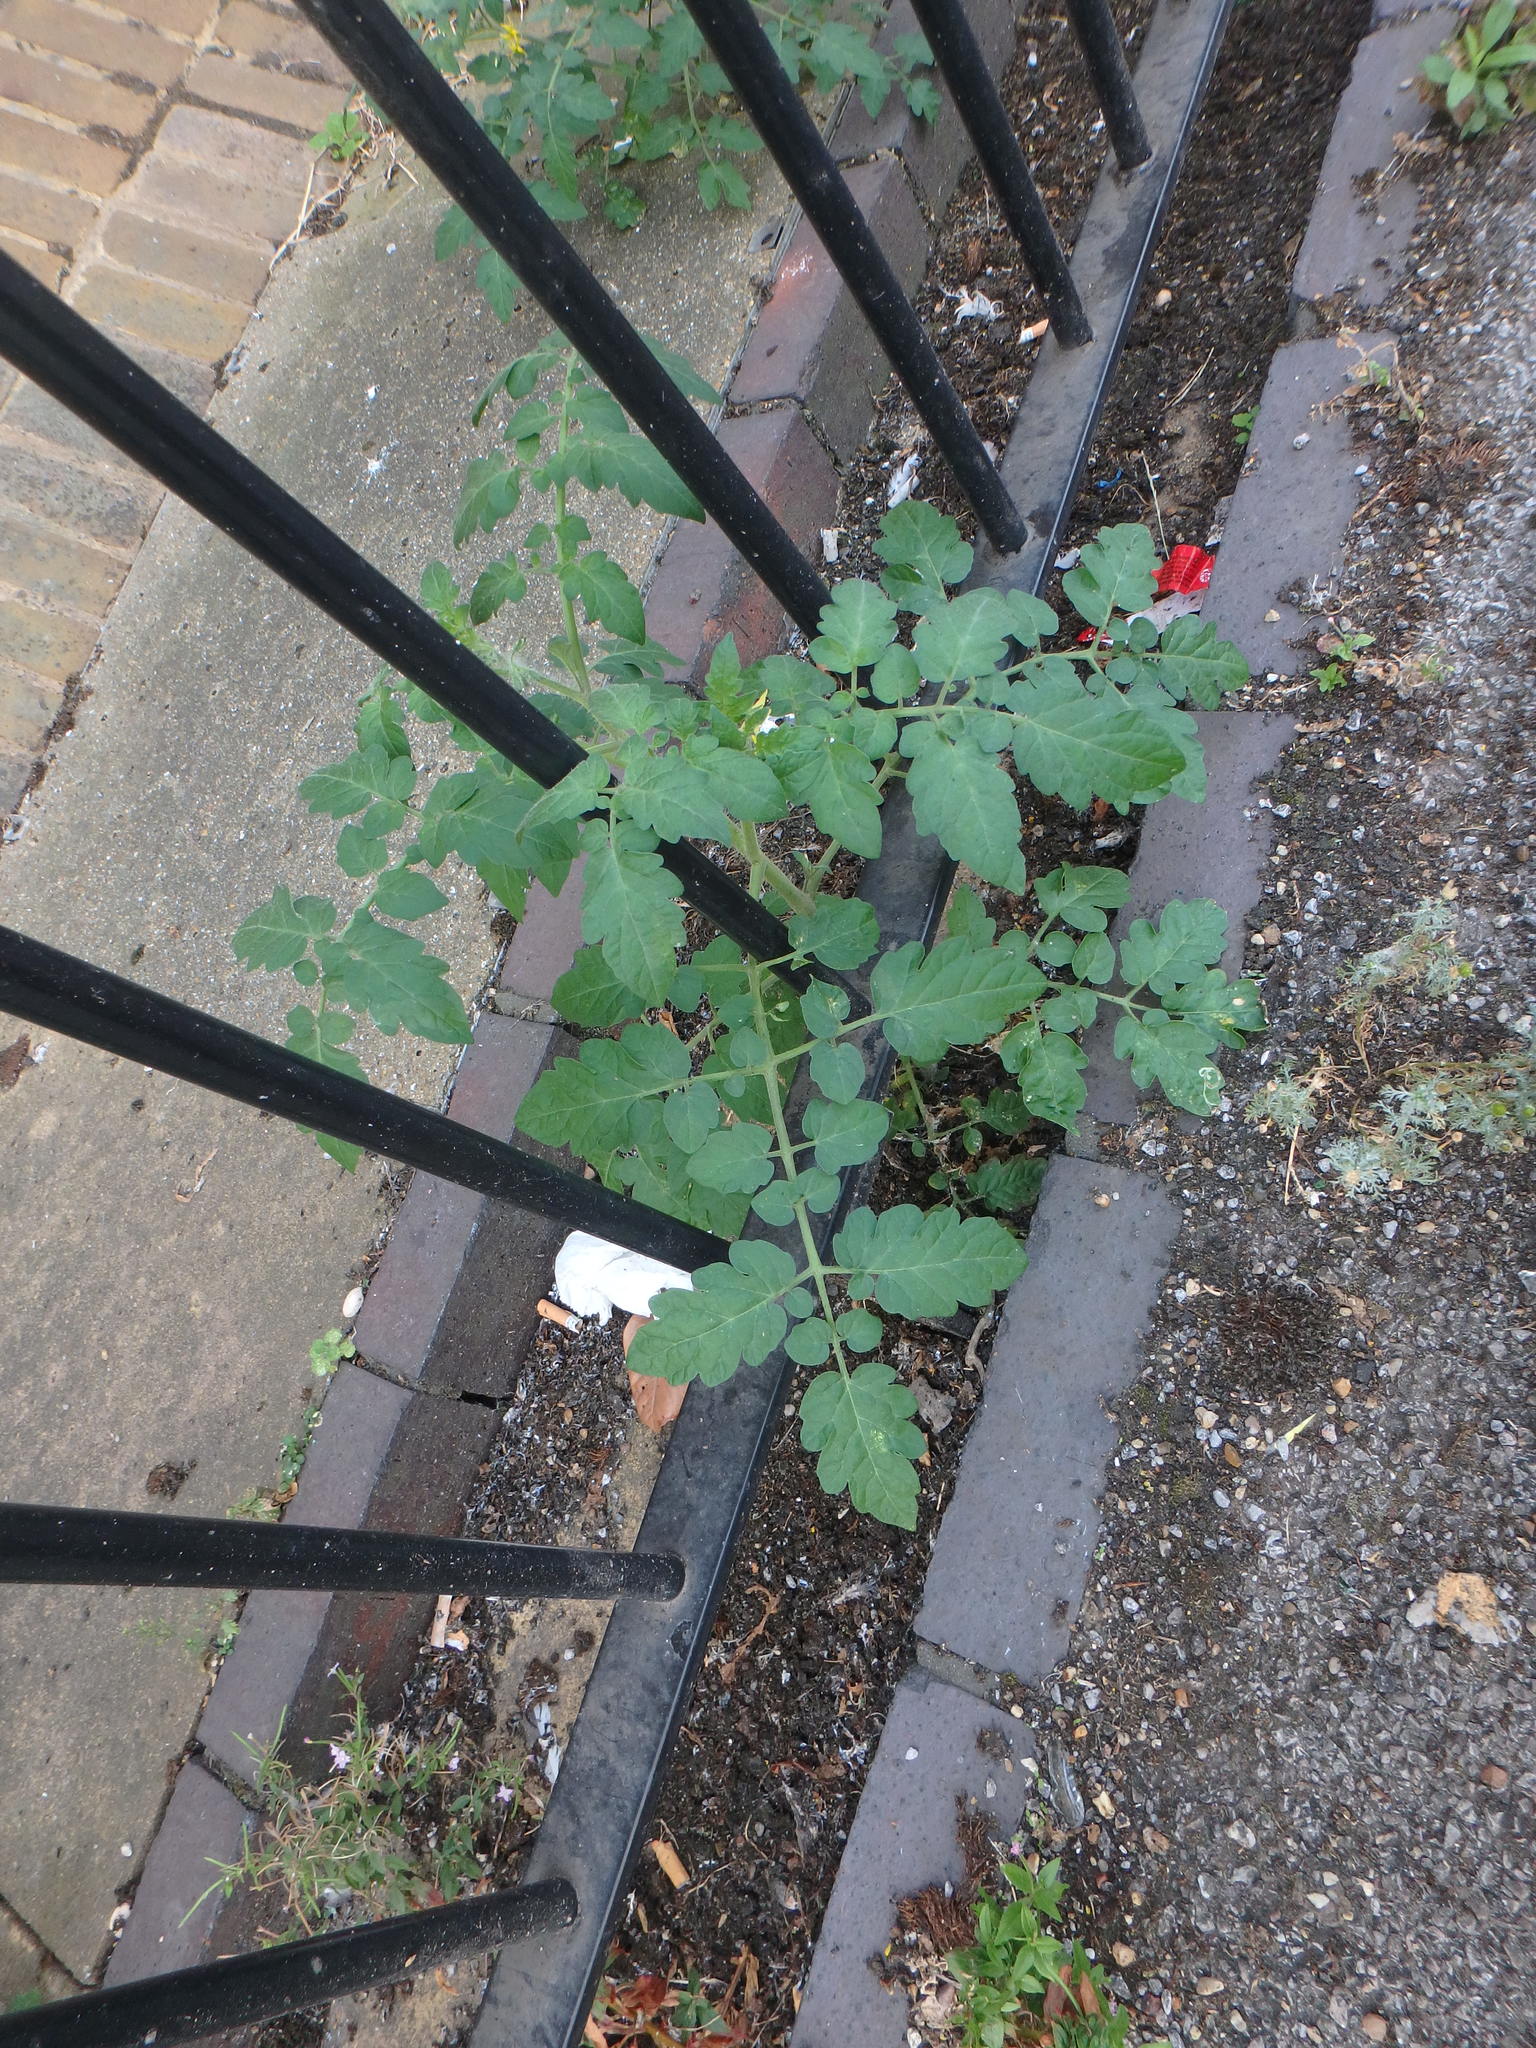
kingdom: Plantae
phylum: Tracheophyta
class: Magnoliopsida
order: Solanales
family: Solanaceae
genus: Solanum
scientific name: Solanum lycopersicum
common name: Garden tomato
